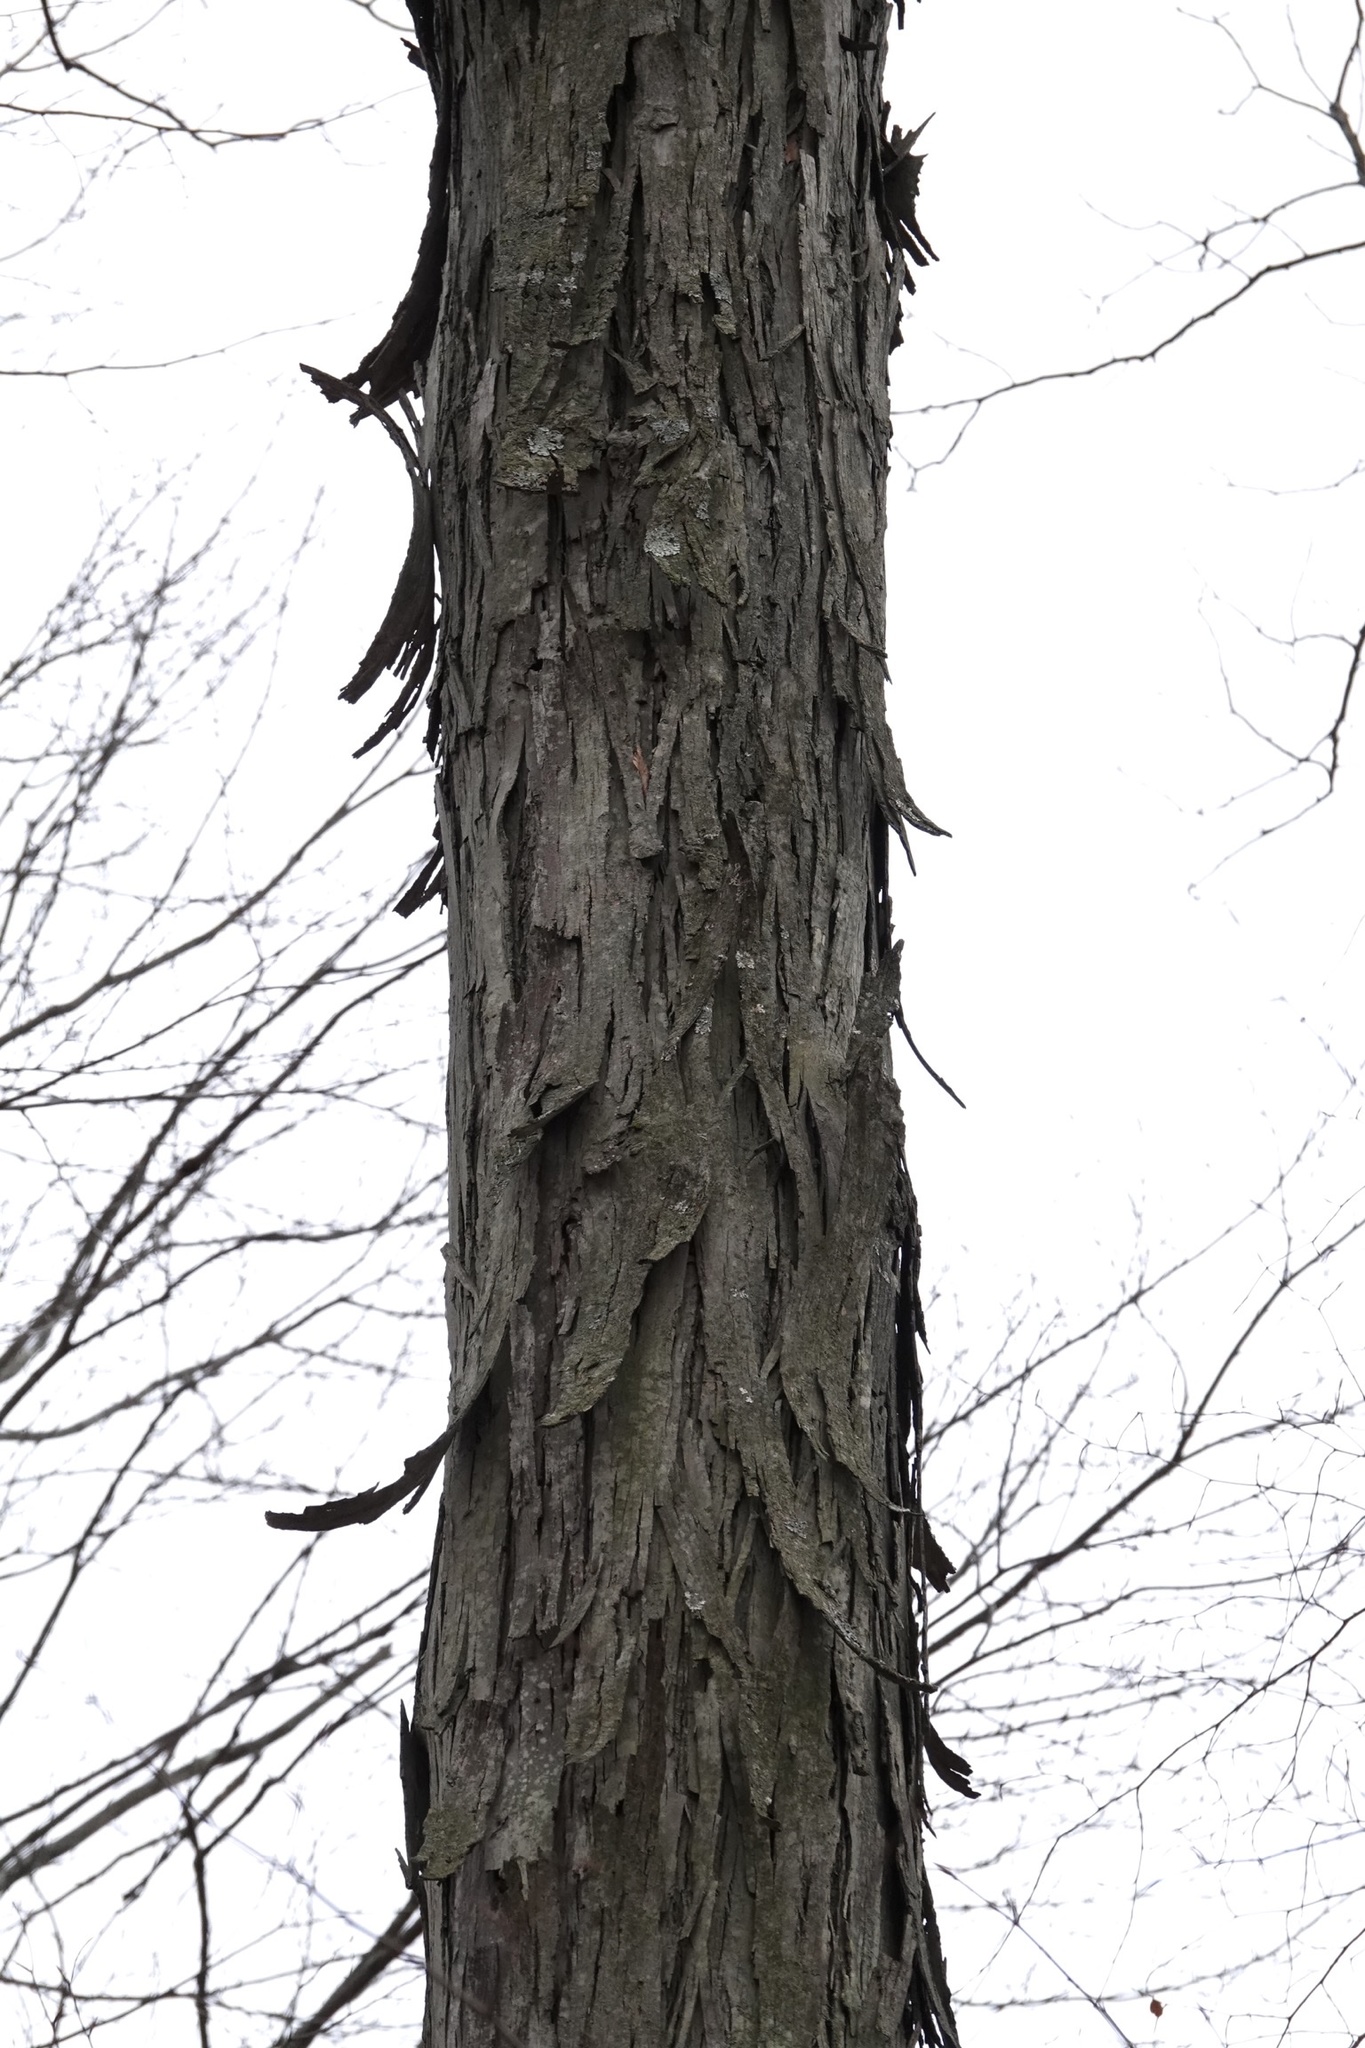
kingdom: Plantae
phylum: Tracheophyta
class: Magnoliopsida
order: Fagales
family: Juglandaceae
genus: Carya
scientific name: Carya ovata
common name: Shagbark hickory
